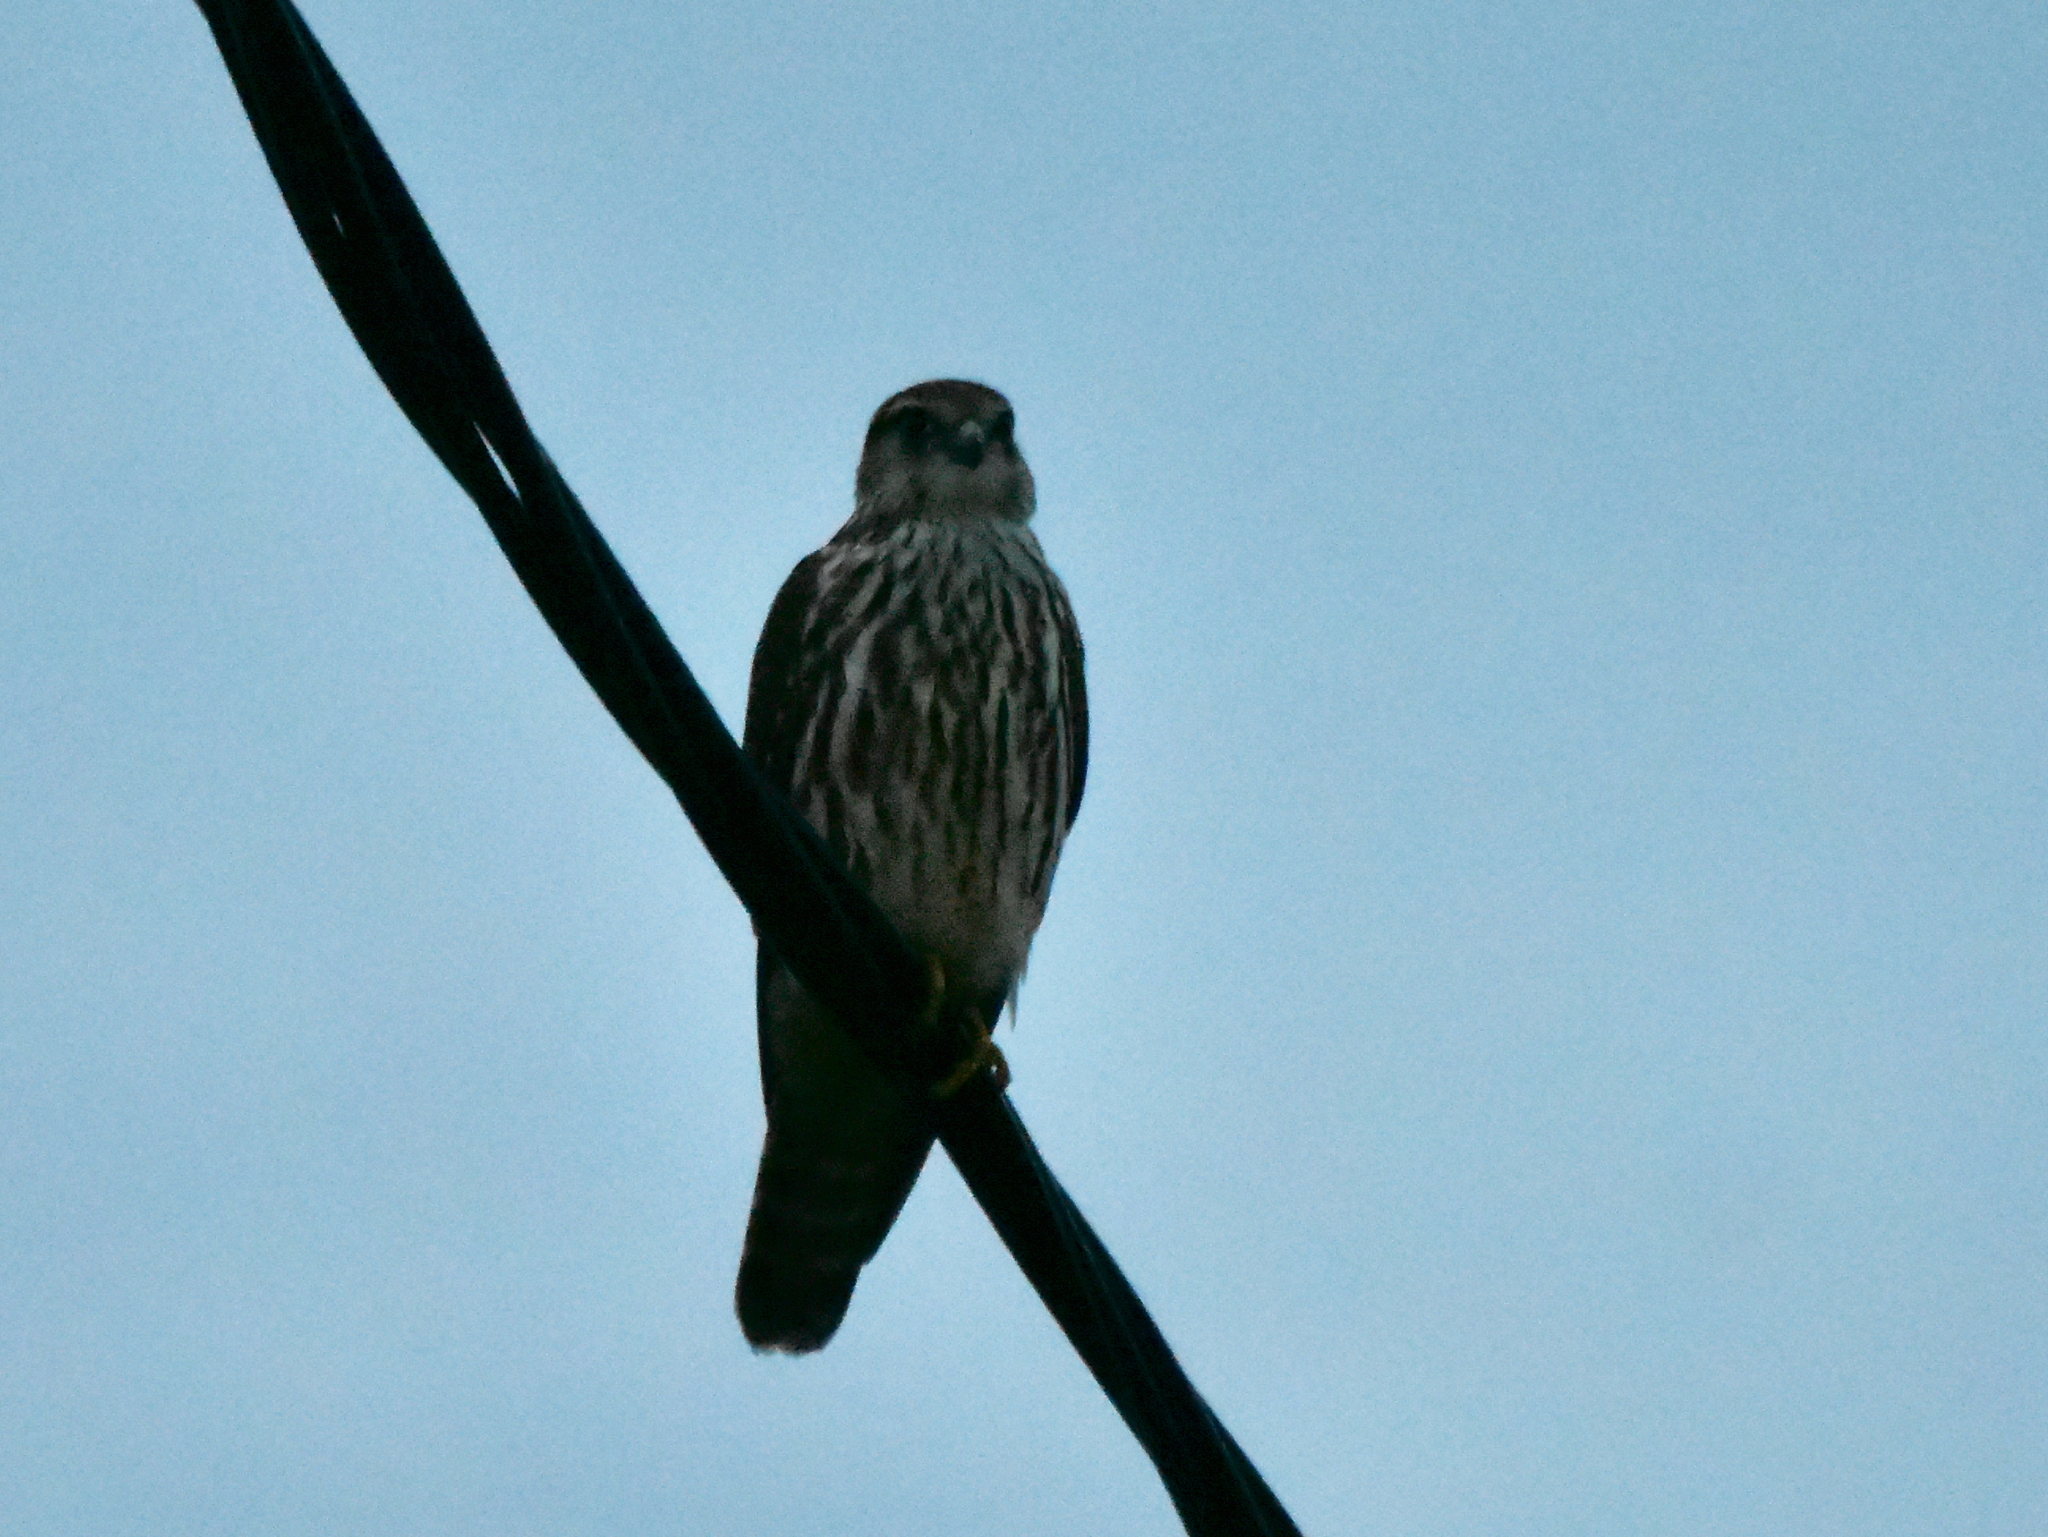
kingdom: Animalia
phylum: Chordata
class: Aves
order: Falconiformes
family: Falconidae
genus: Falco
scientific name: Falco columbarius
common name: Merlin
